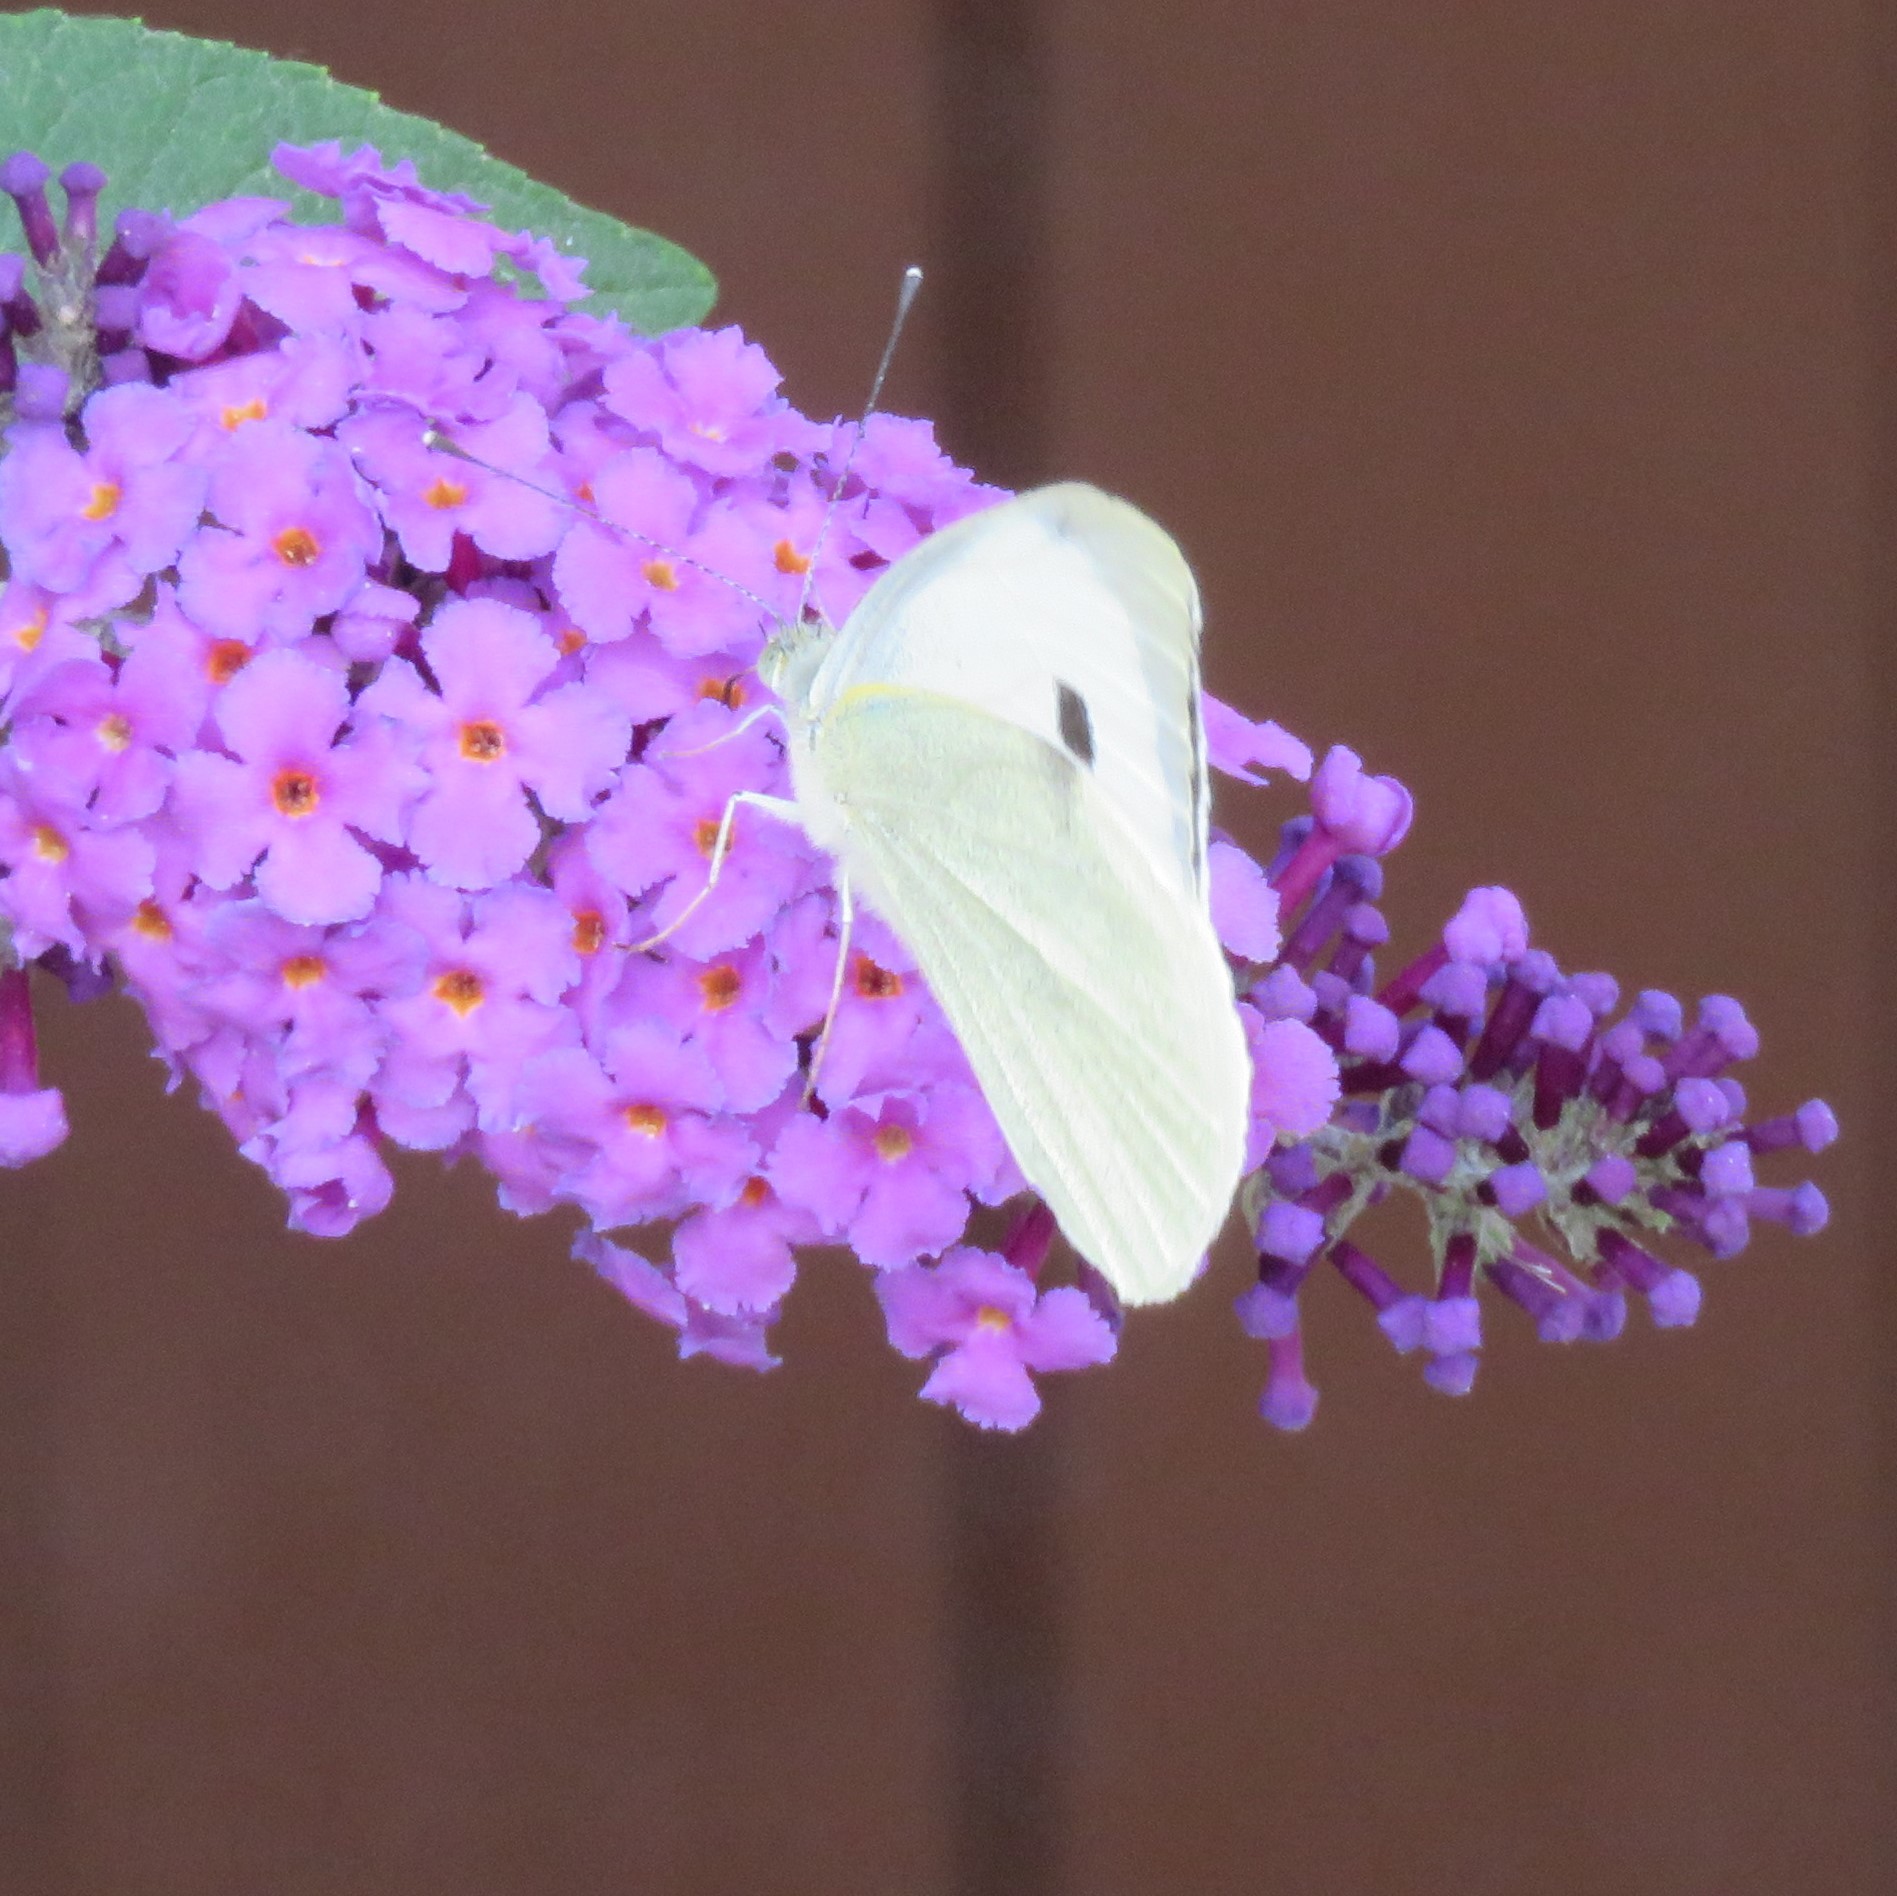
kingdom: Animalia
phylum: Arthropoda
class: Insecta
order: Lepidoptera
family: Pieridae
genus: Pieris
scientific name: Pieris brassicae
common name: Large white
